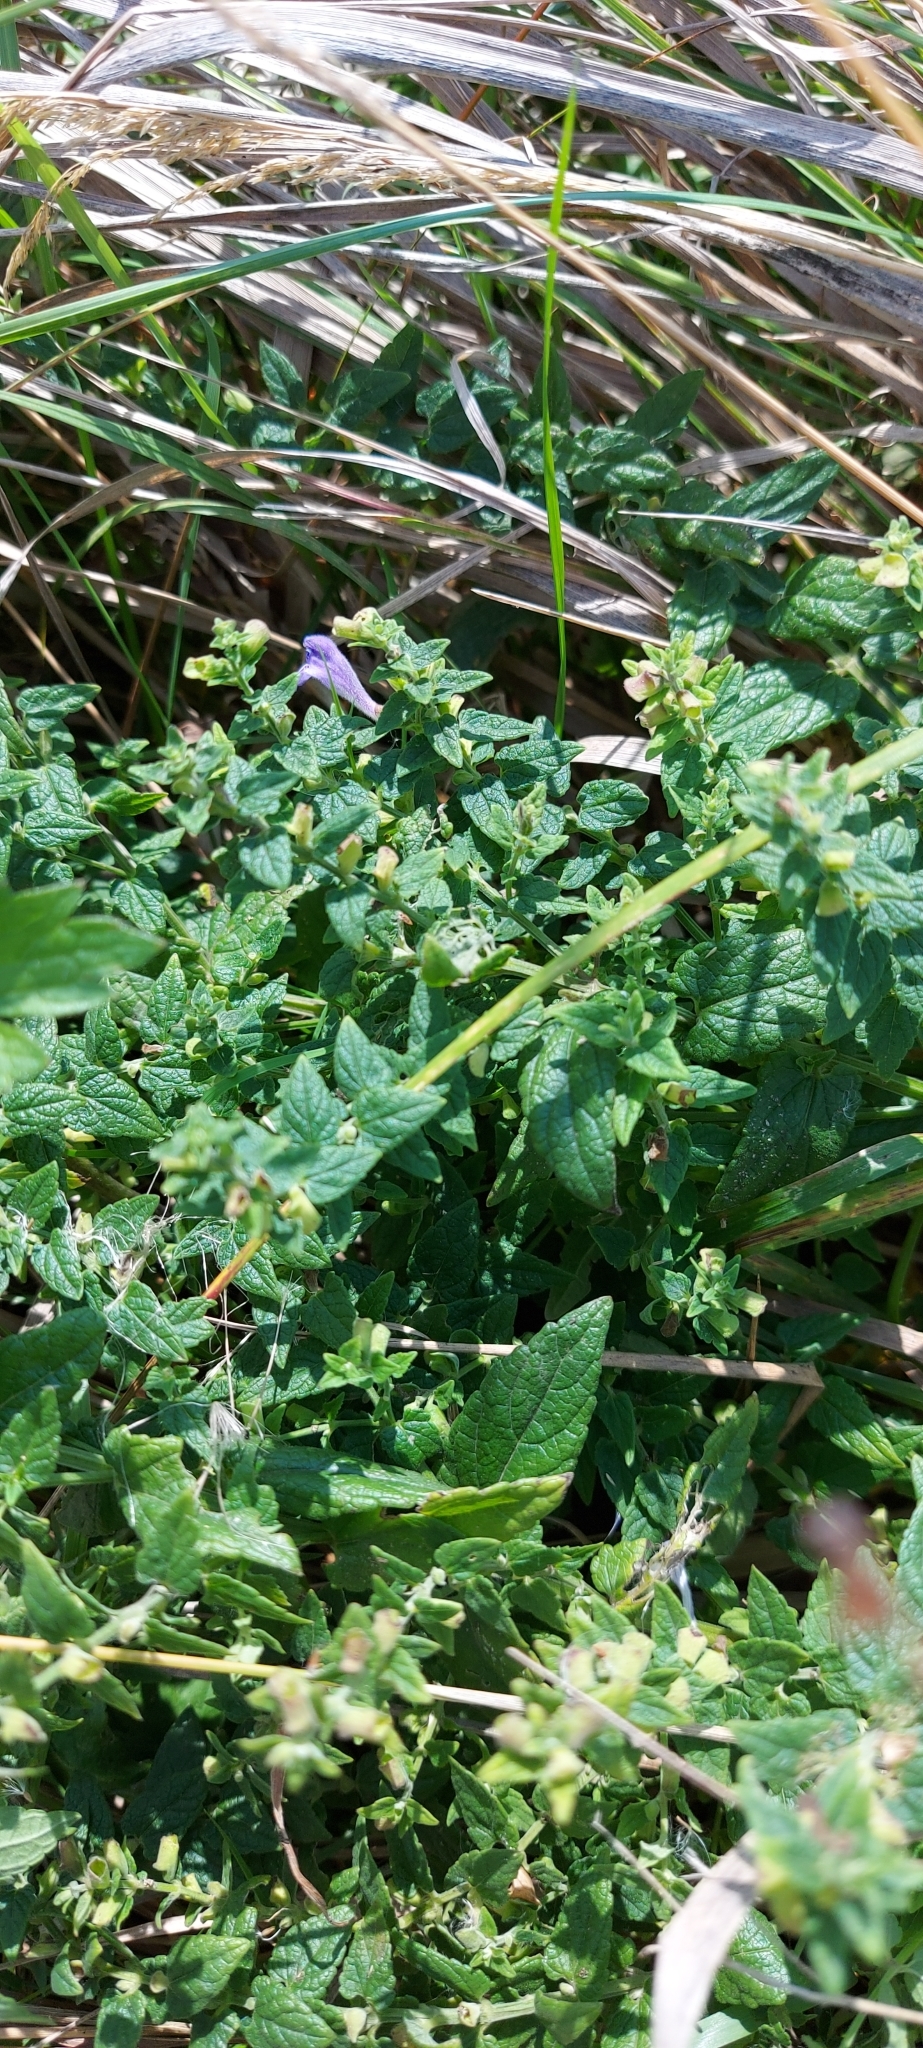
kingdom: Plantae
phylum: Tracheophyta
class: Magnoliopsida
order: Lamiales
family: Lamiaceae
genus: Scutellaria
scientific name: Scutellaria galericulata
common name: Skullcap
